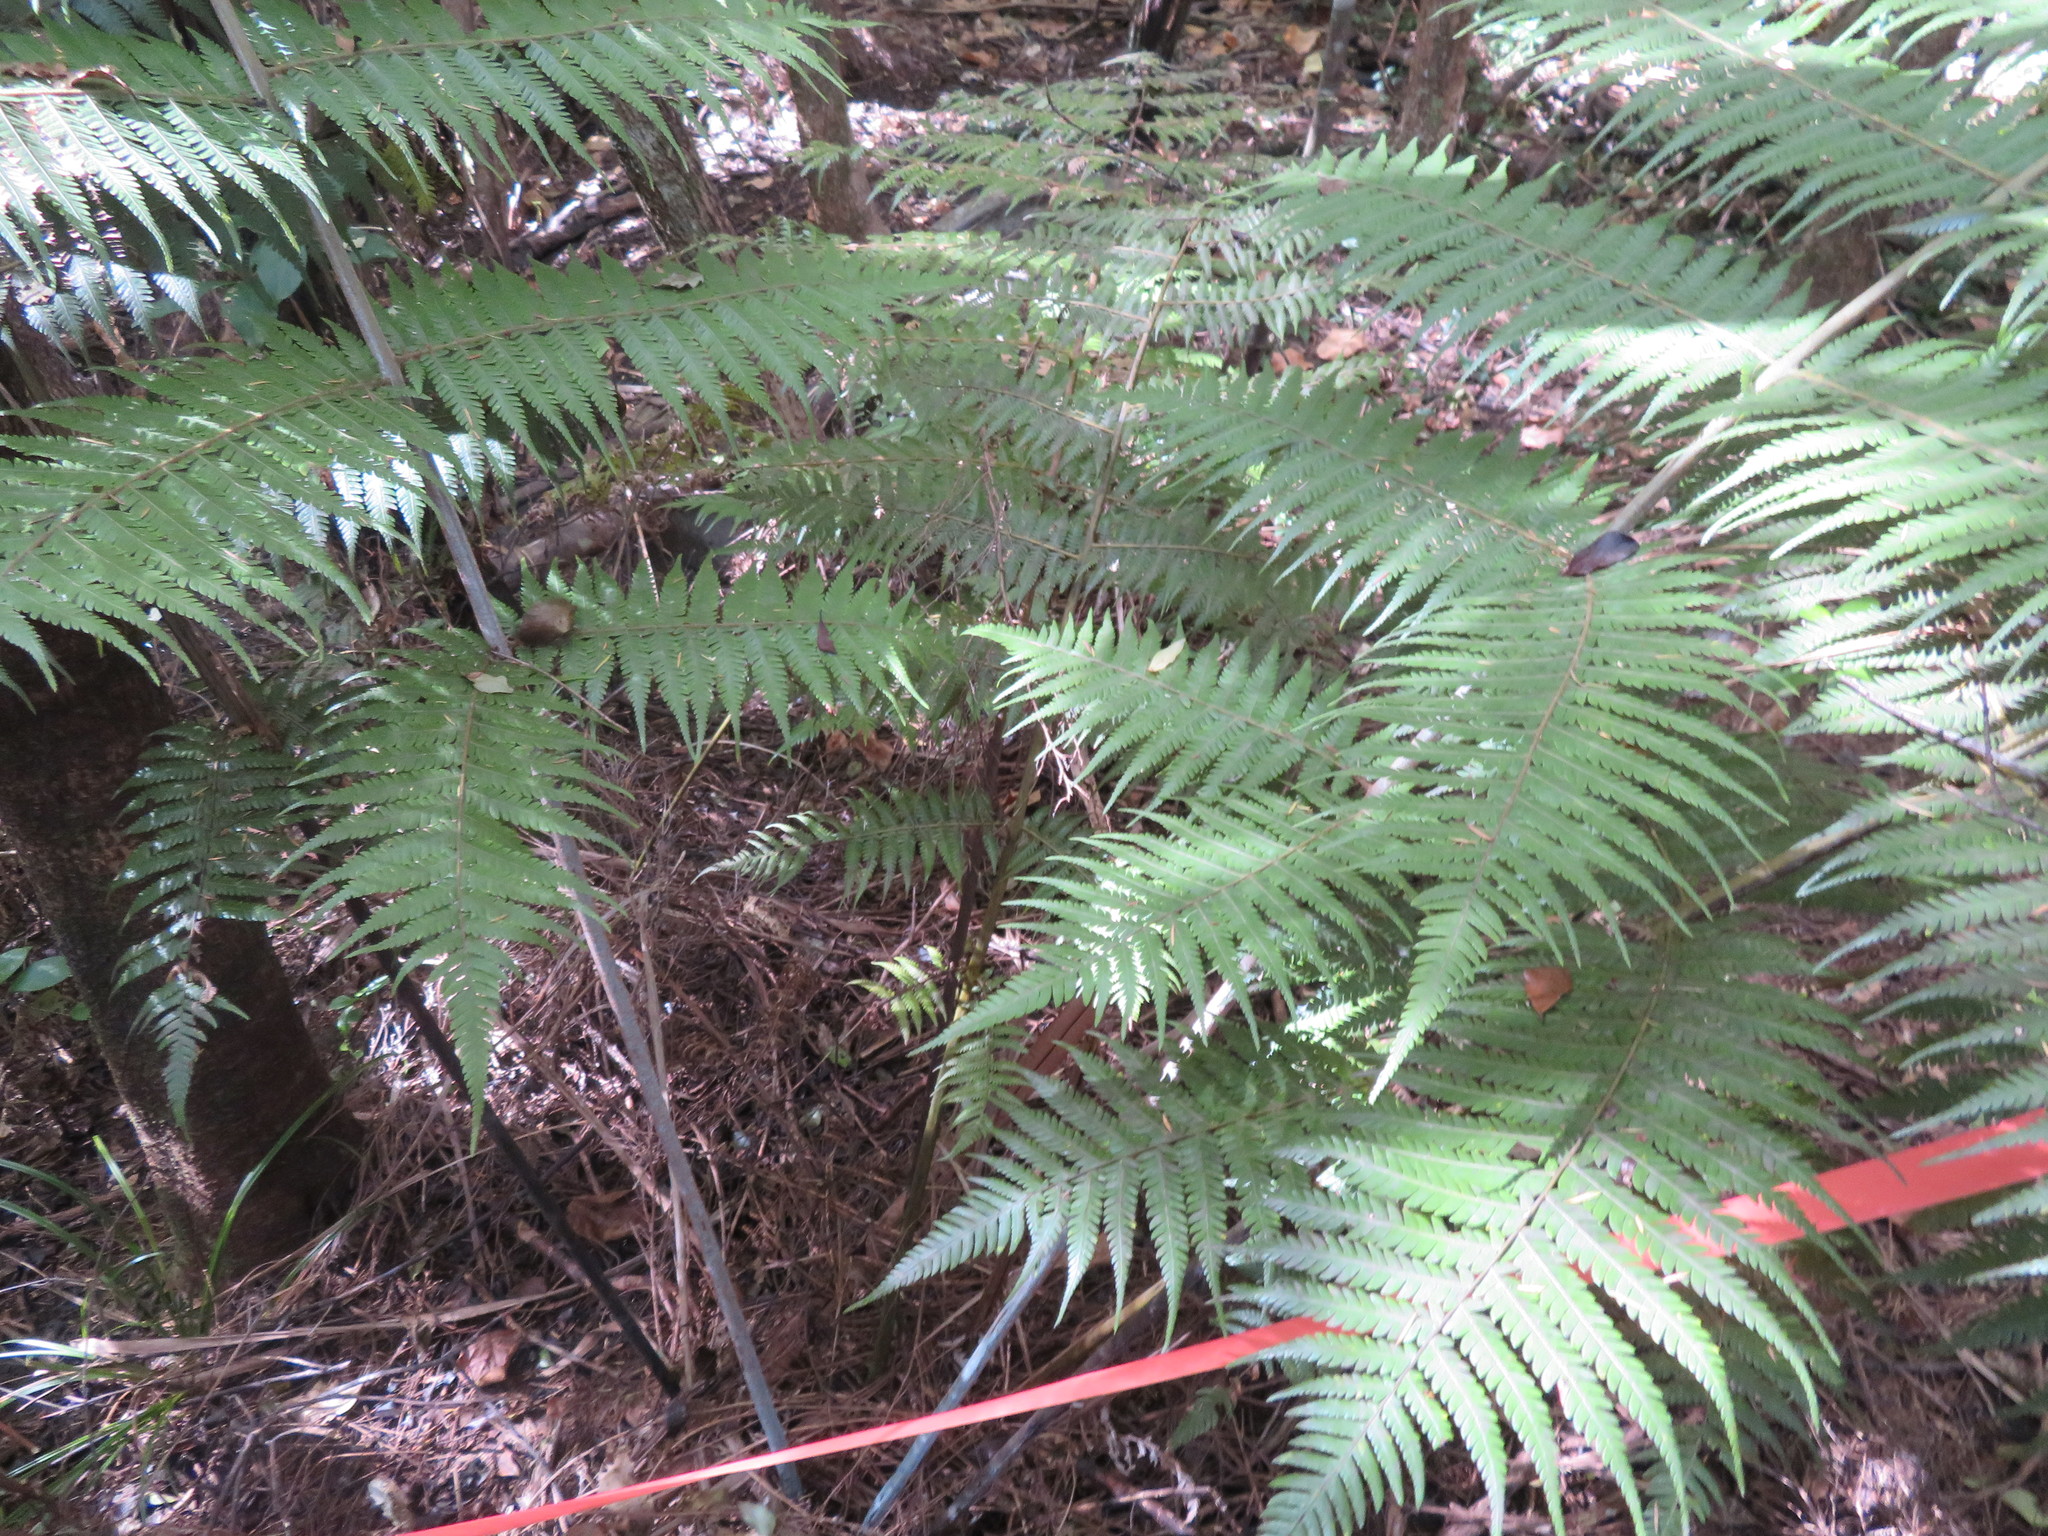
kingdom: Plantae
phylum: Tracheophyta
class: Polypodiopsida
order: Cyatheales
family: Cyatheaceae
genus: Alsophila
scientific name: Alsophila dealbata
